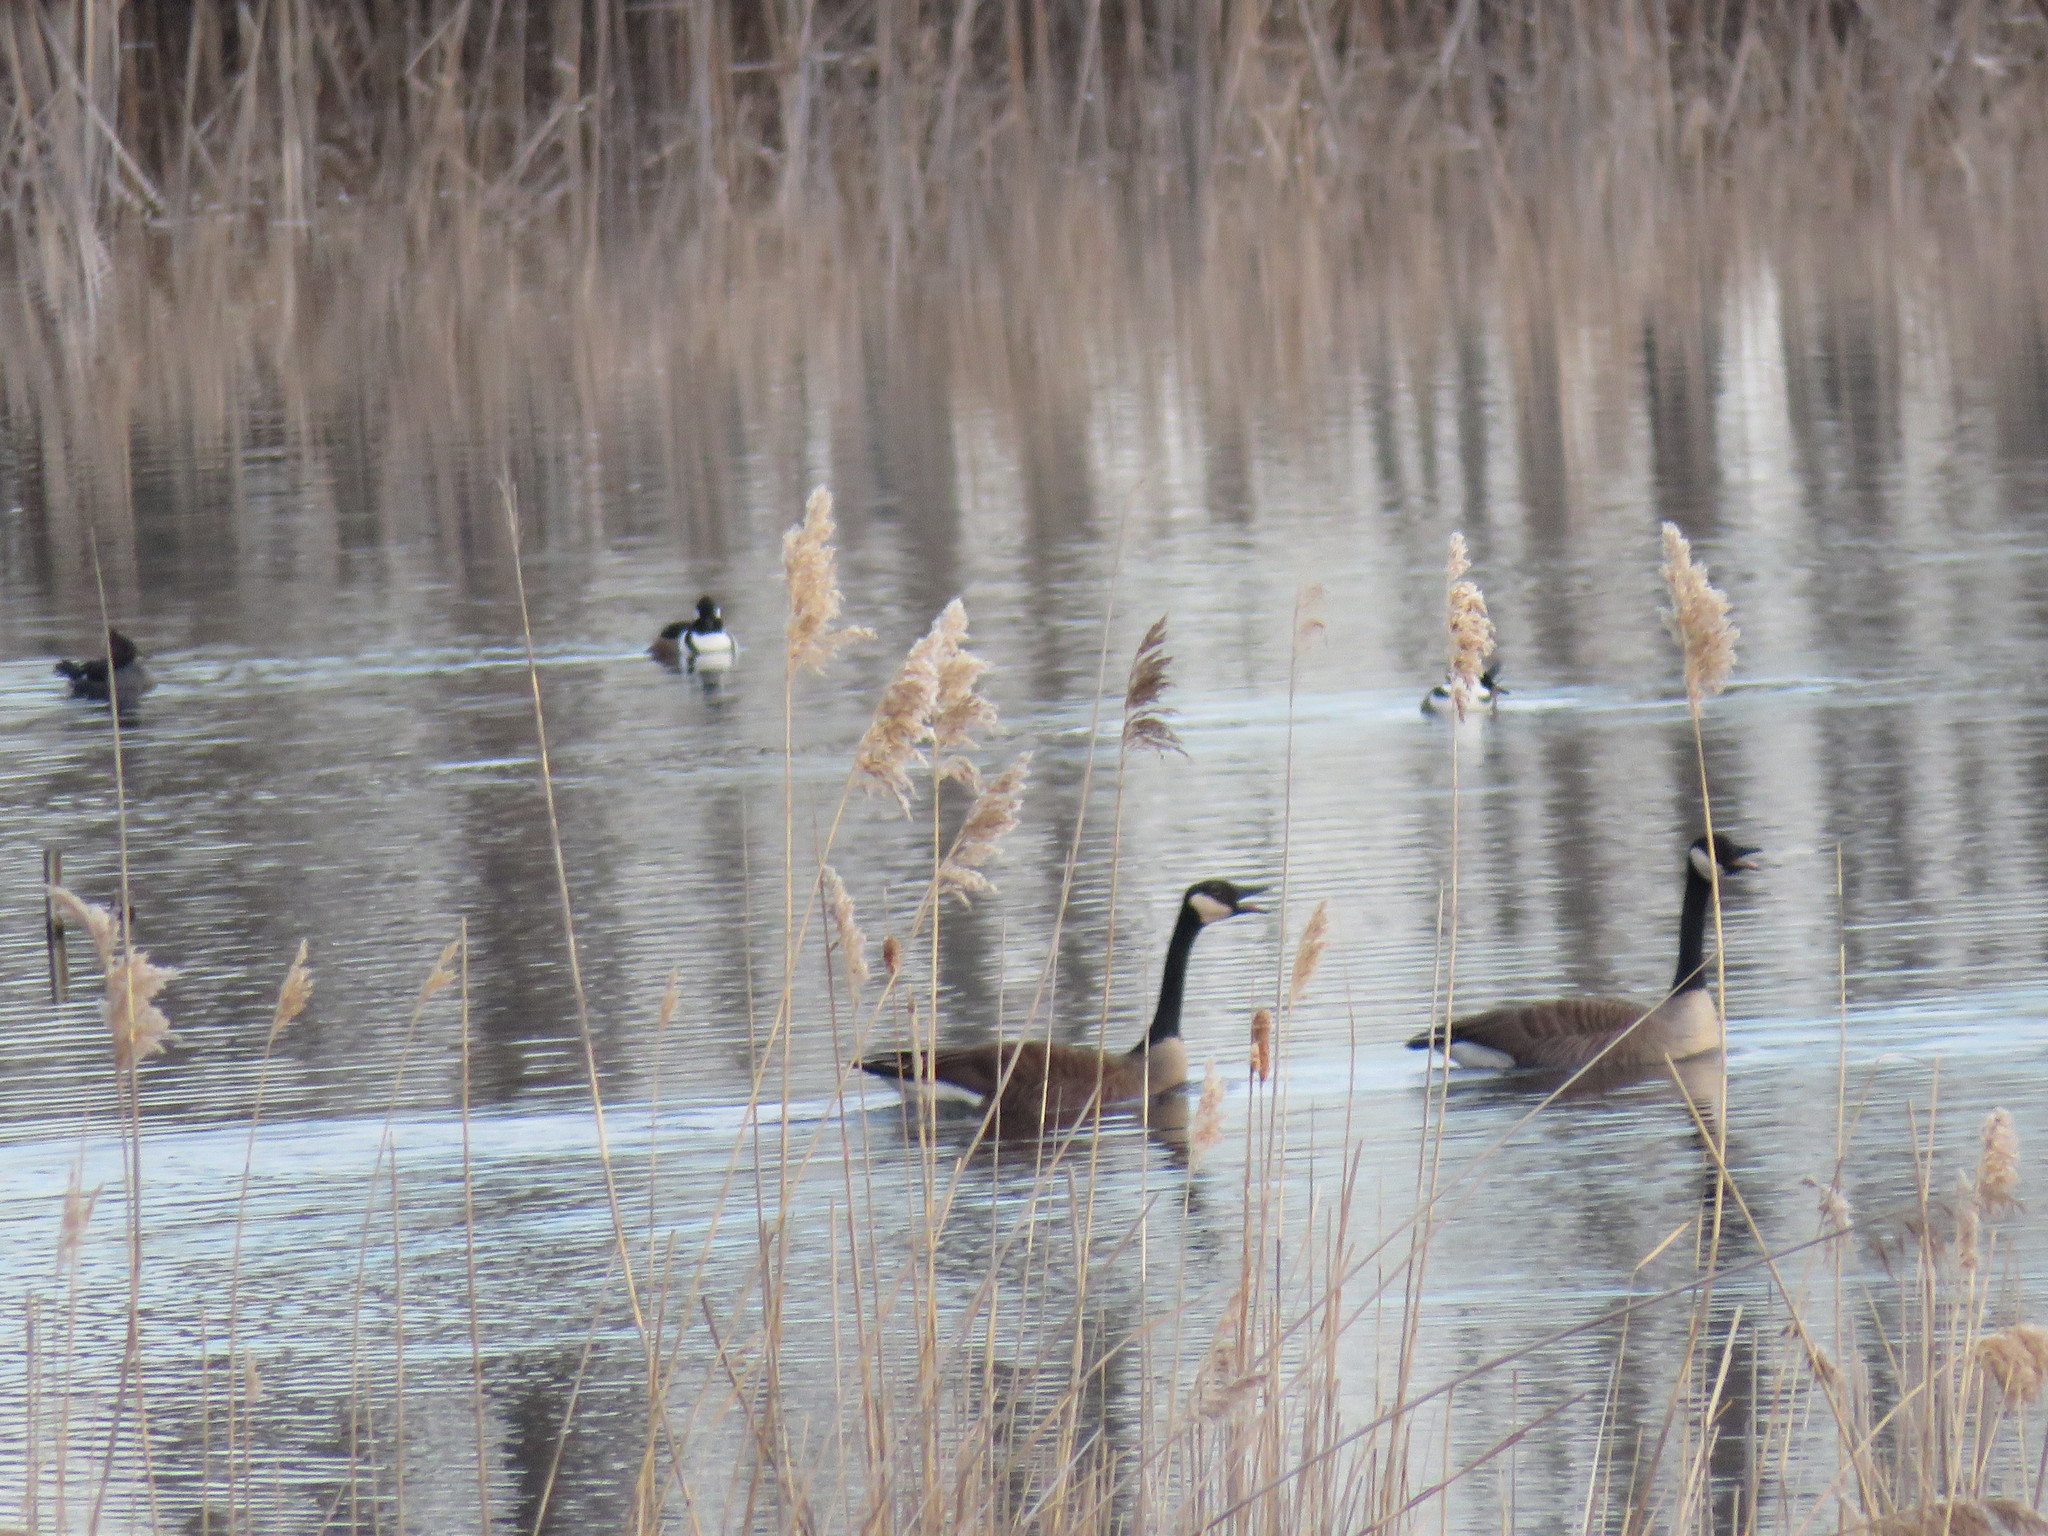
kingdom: Animalia
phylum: Chordata
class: Aves
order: Anseriformes
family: Anatidae
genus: Branta
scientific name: Branta canadensis
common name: Canada goose
